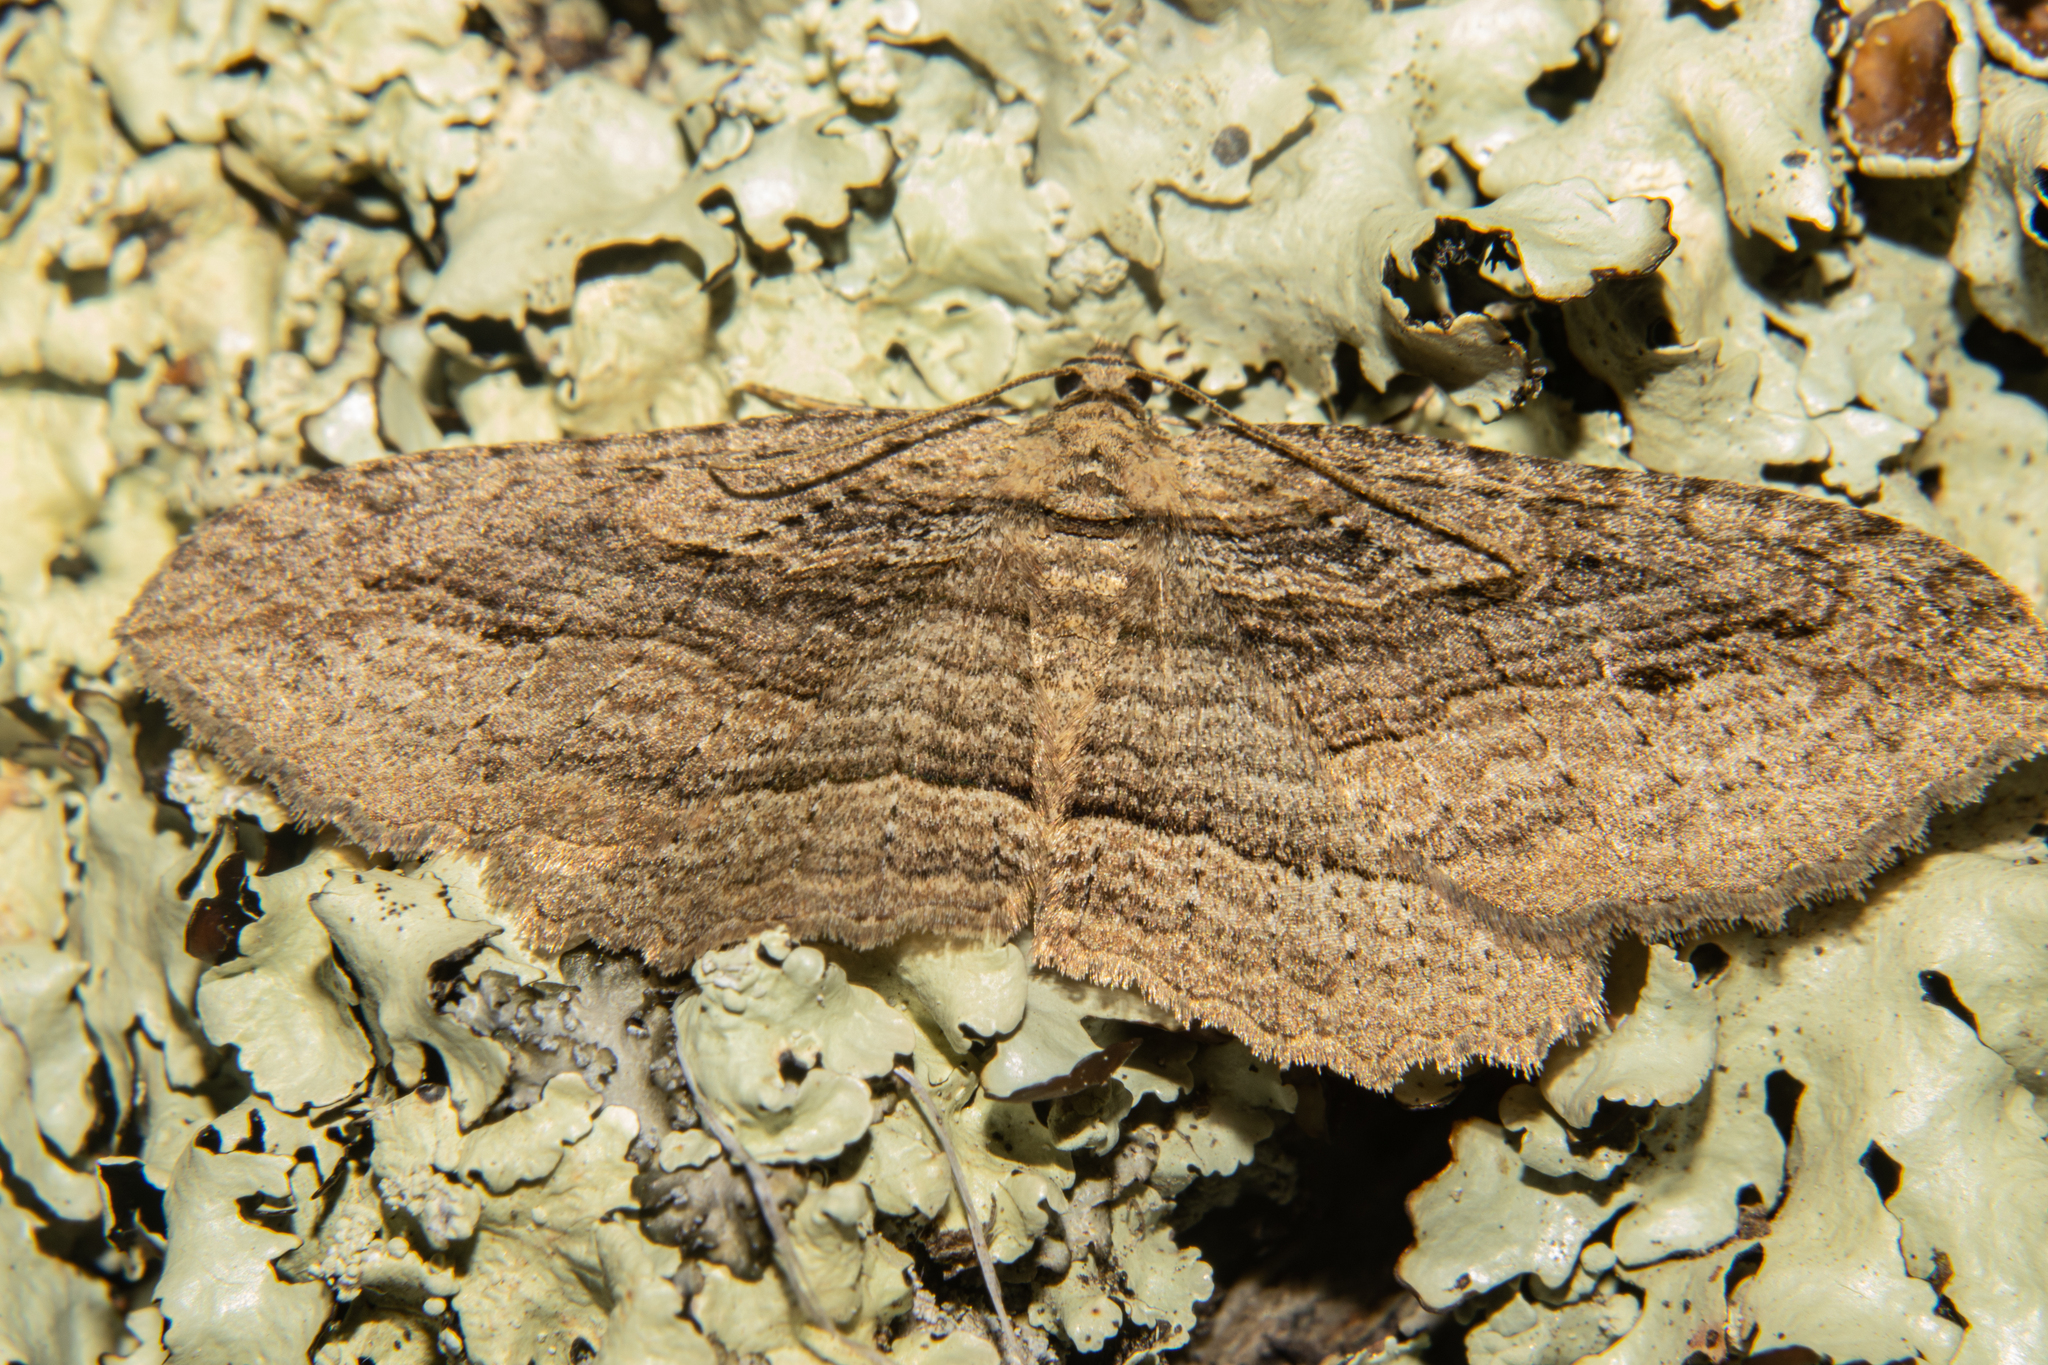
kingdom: Animalia
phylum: Arthropoda
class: Insecta
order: Lepidoptera
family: Geometridae
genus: Austrocidaria
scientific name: Austrocidaria gobiata
